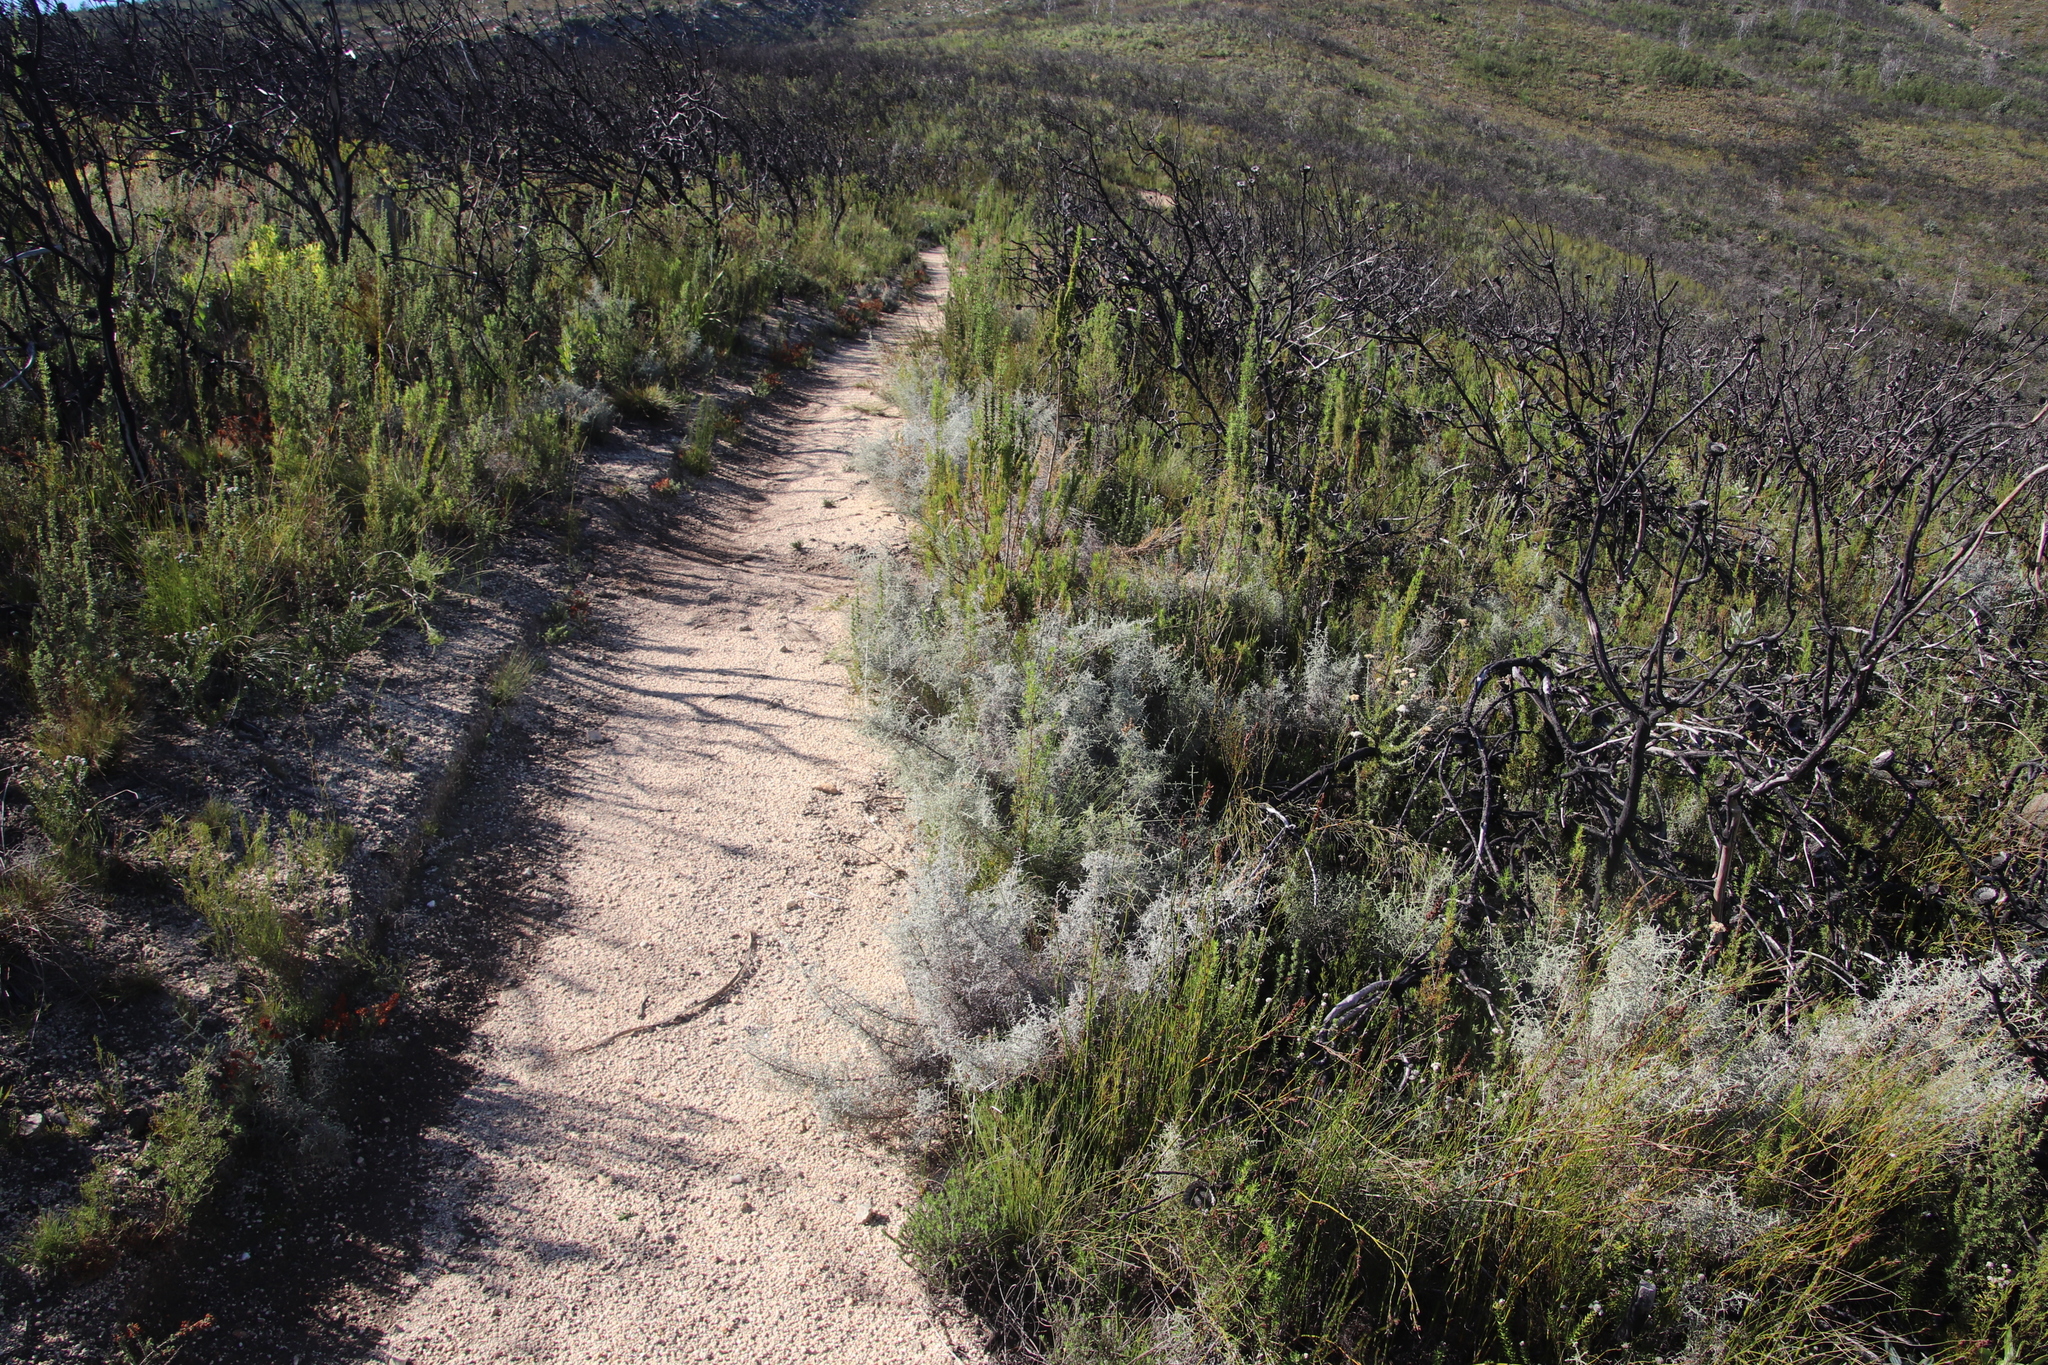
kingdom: Plantae
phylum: Tracheophyta
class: Magnoliopsida
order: Asterales
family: Asteraceae
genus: Seriphium
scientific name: Seriphium plumosum
